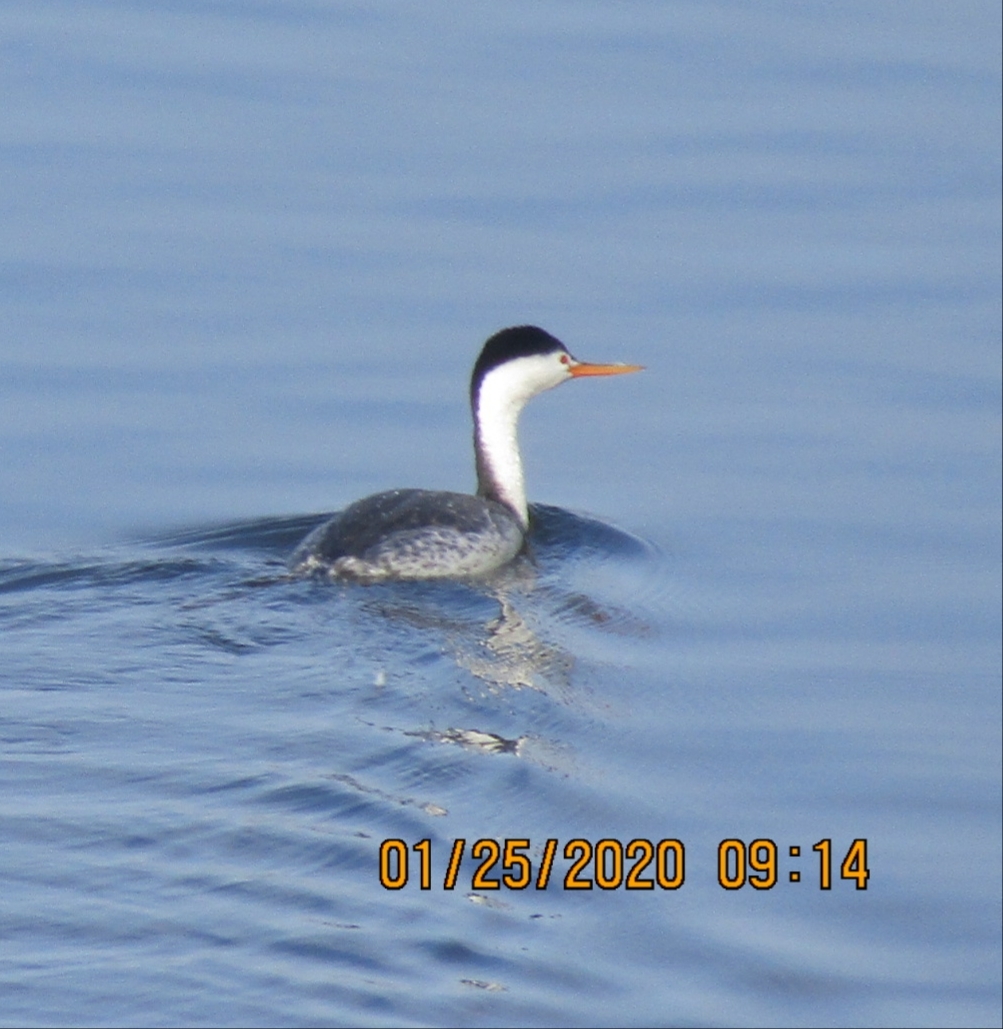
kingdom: Animalia
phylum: Chordata
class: Aves
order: Podicipediformes
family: Podicipedidae
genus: Aechmophorus
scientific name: Aechmophorus clarkii
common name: Clark's grebe
